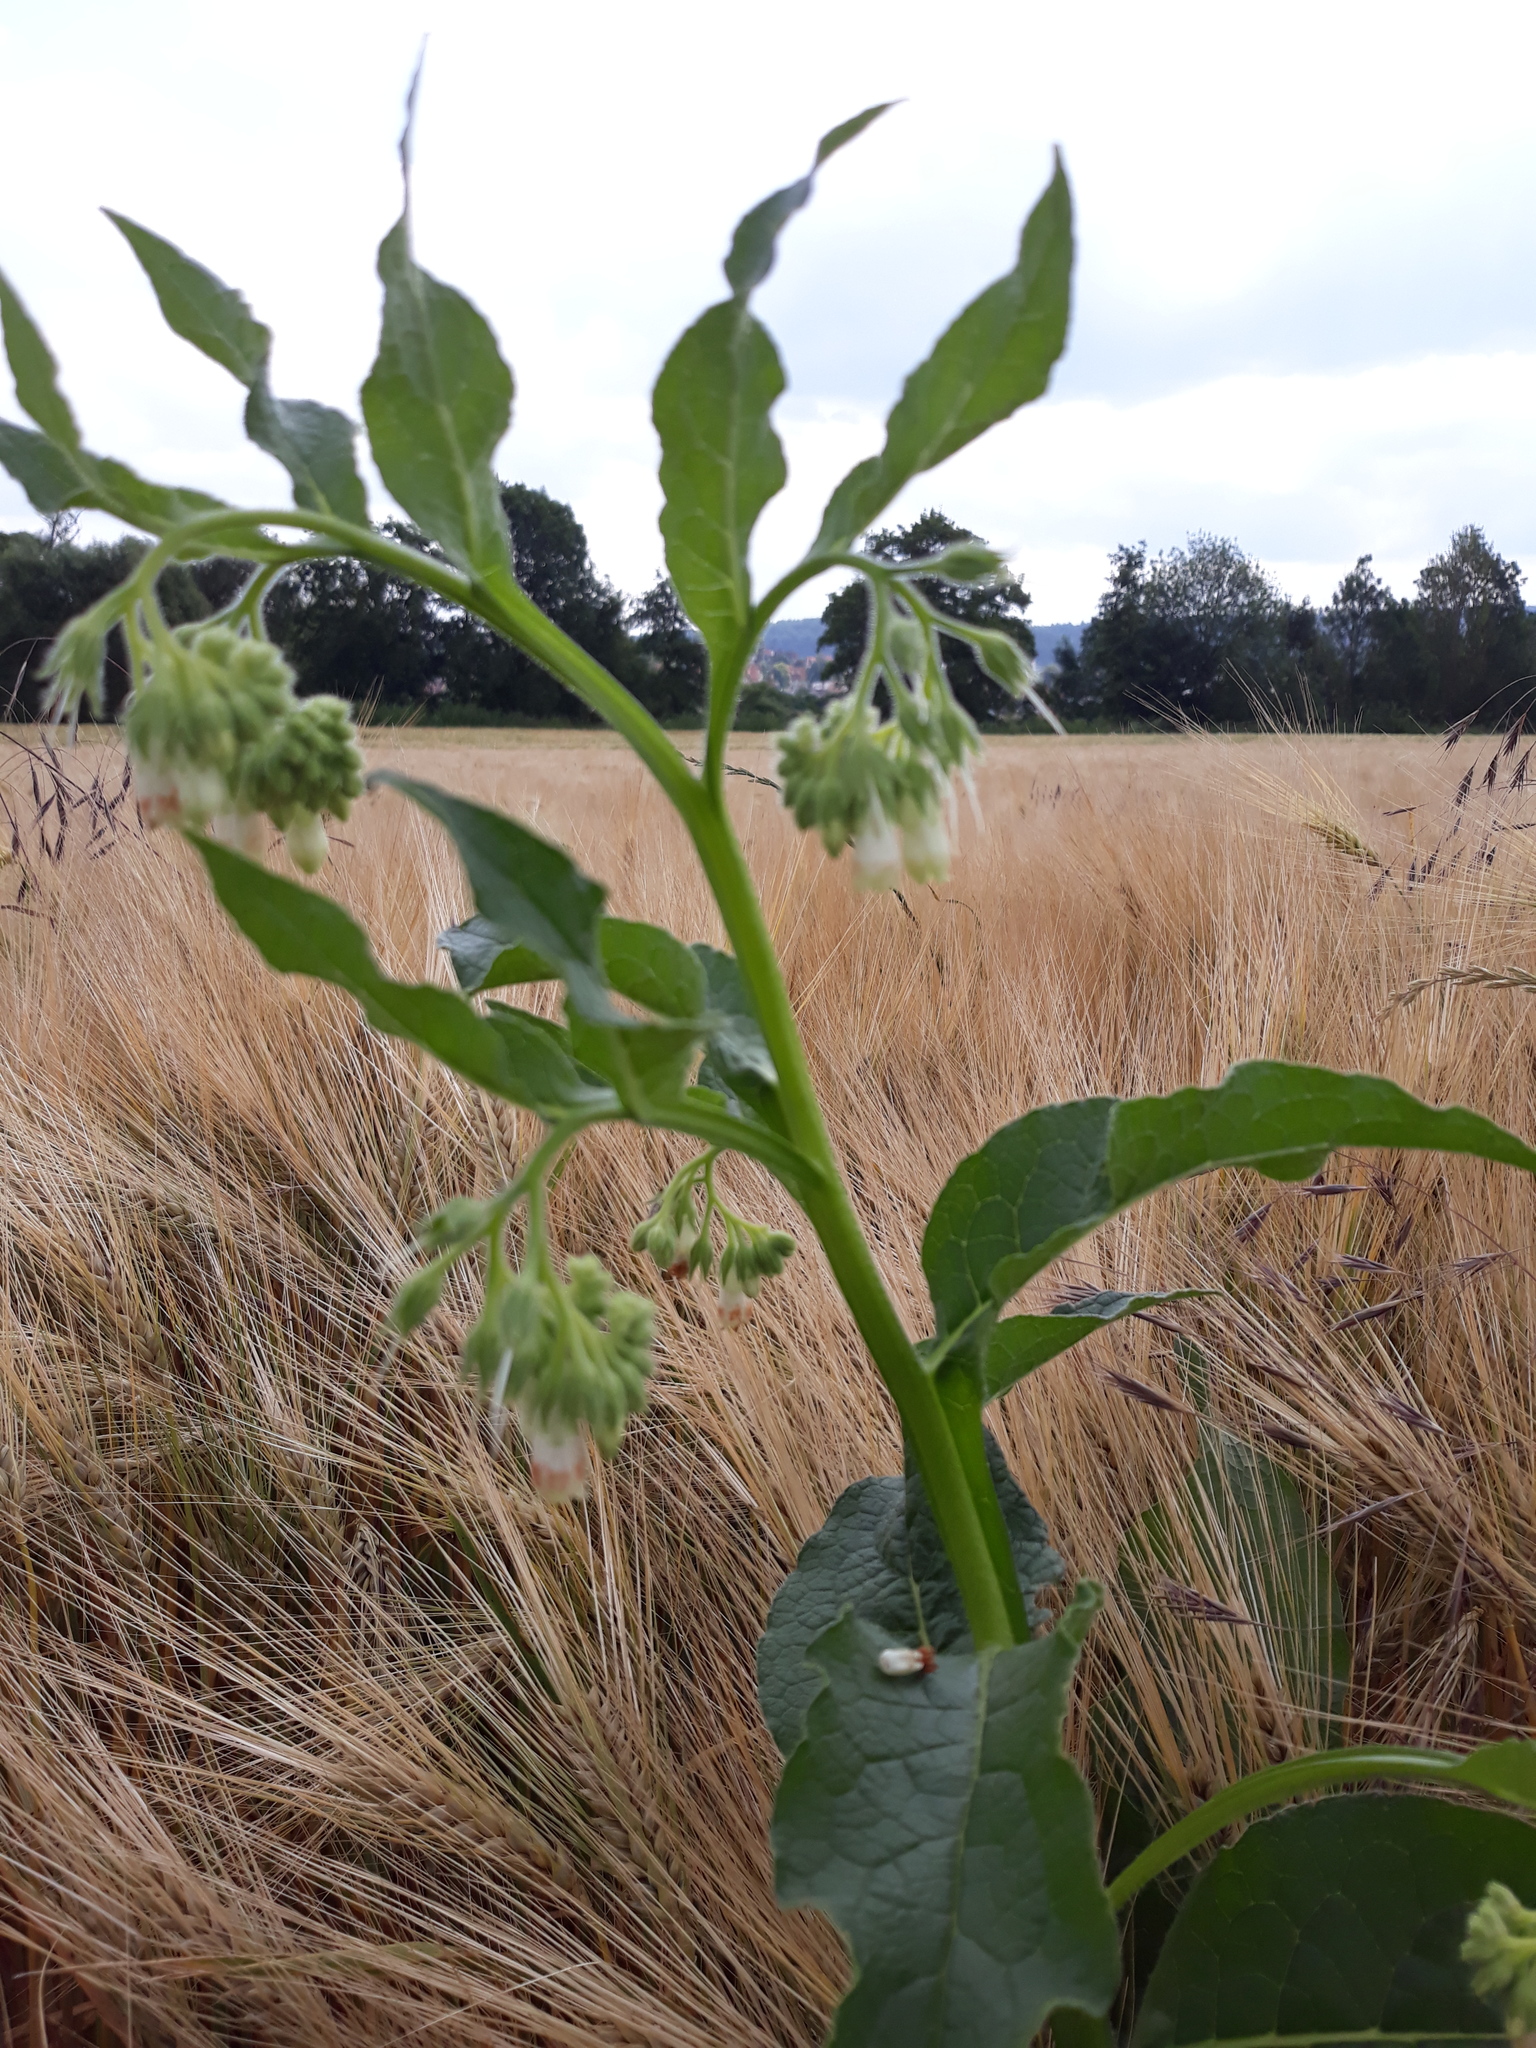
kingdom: Plantae
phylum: Tracheophyta
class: Magnoliopsida
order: Boraginales
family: Boraginaceae
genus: Symphytum
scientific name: Symphytum officinale
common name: Common comfrey
